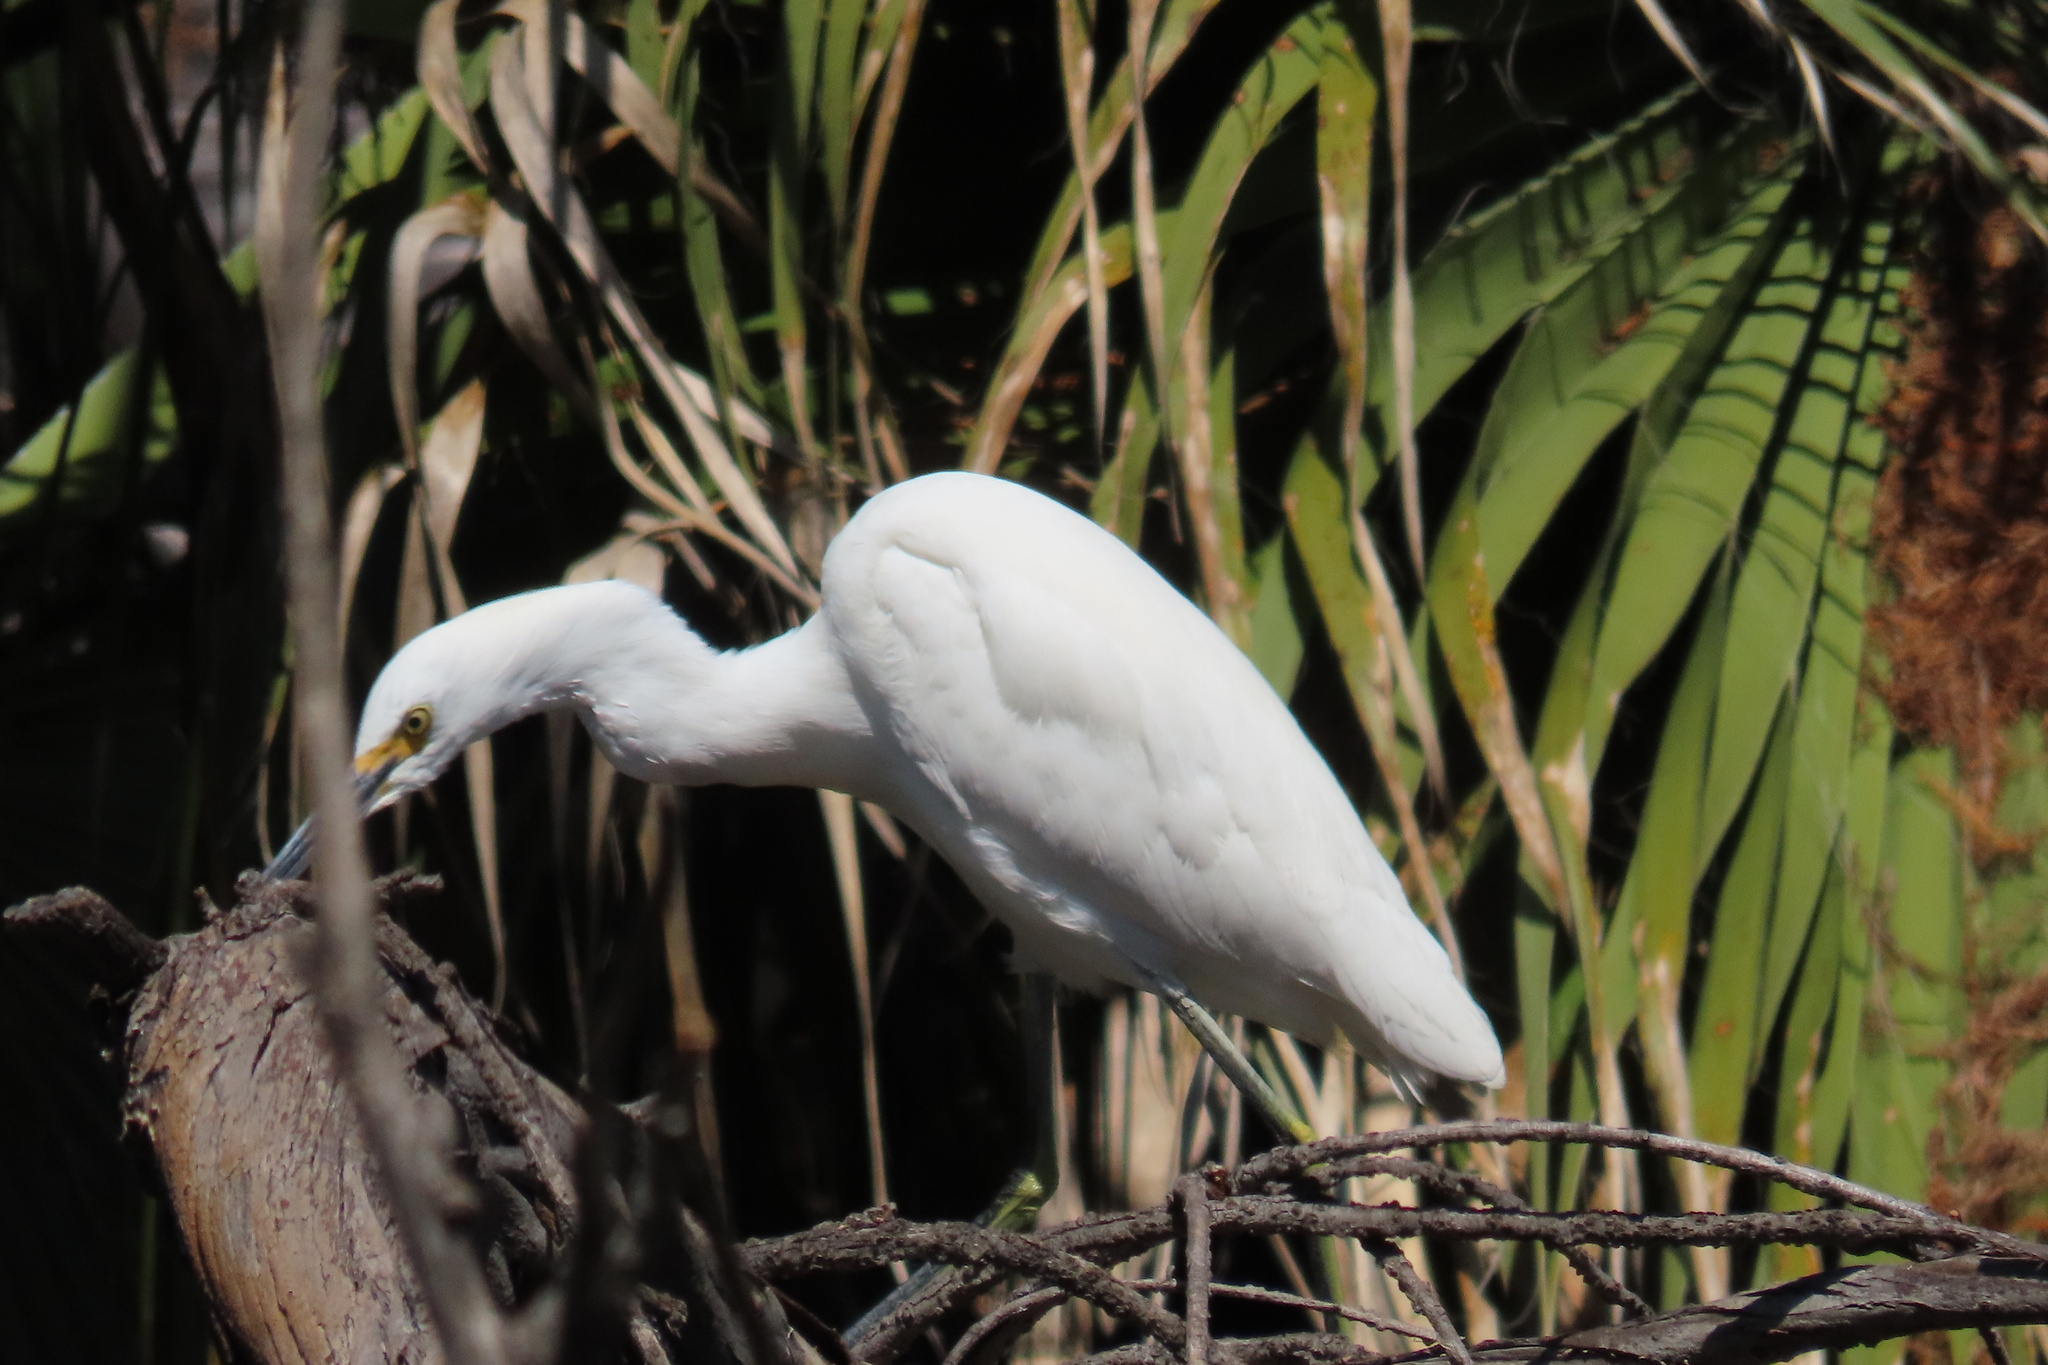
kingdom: Animalia
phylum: Chordata
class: Aves
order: Pelecaniformes
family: Ardeidae
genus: Egretta
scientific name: Egretta thula
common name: Snowy egret
